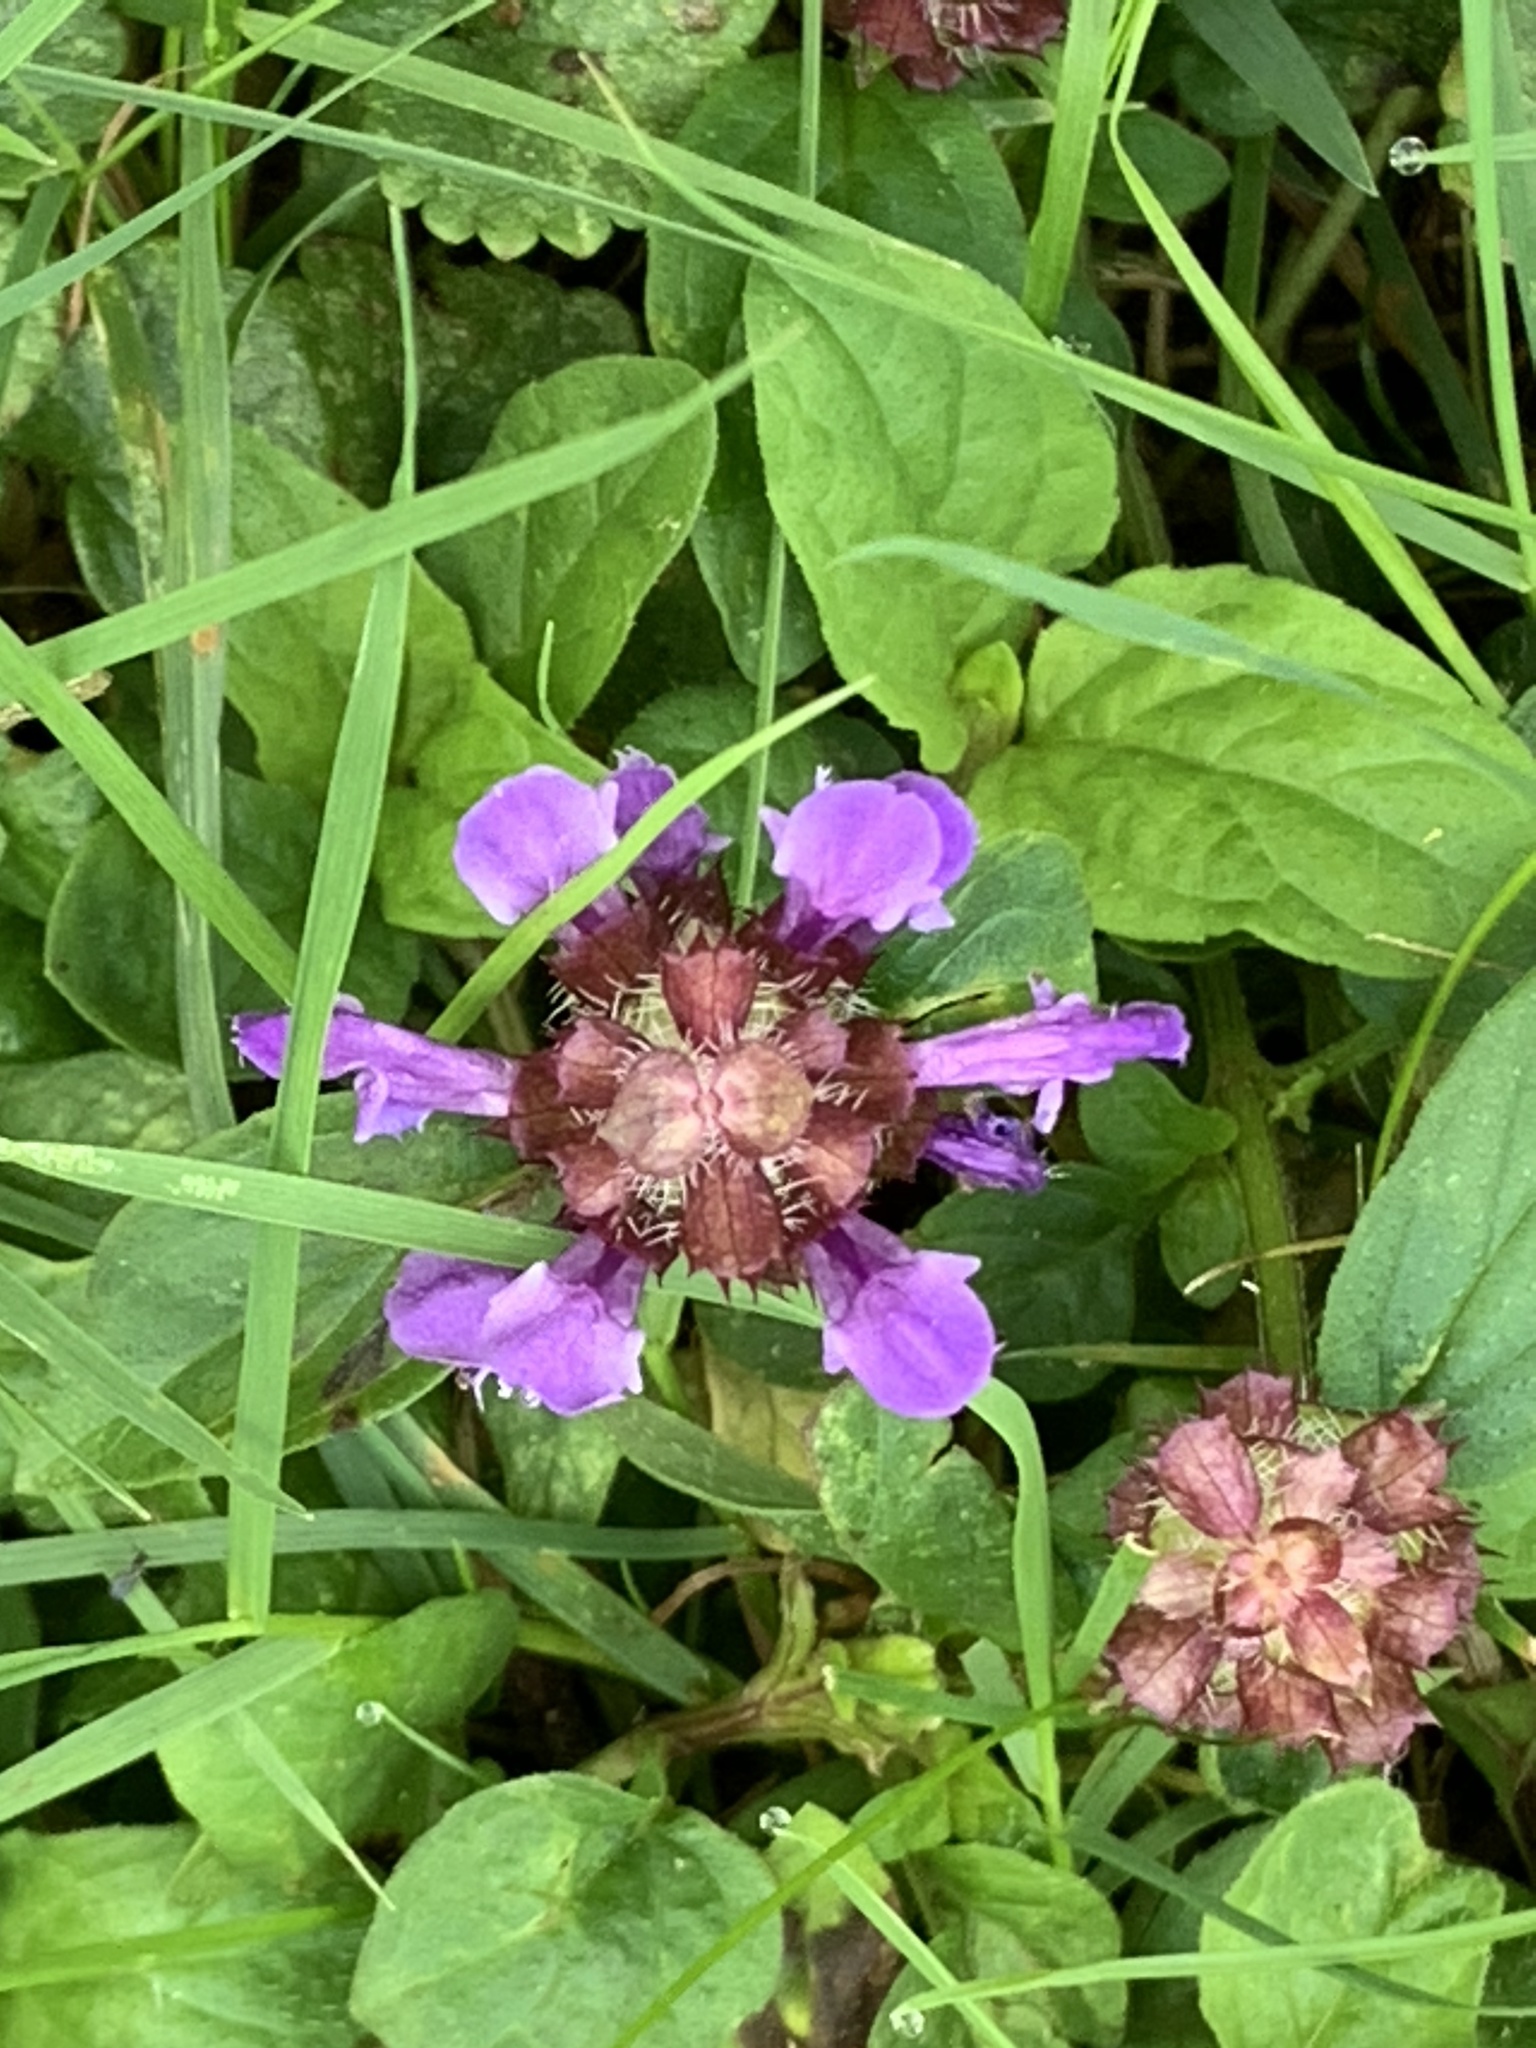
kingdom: Plantae
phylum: Tracheophyta
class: Magnoliopsida
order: Lamiales
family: Lamiaceae
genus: Prunella
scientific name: Prunella vulgaris
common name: Heal-all
